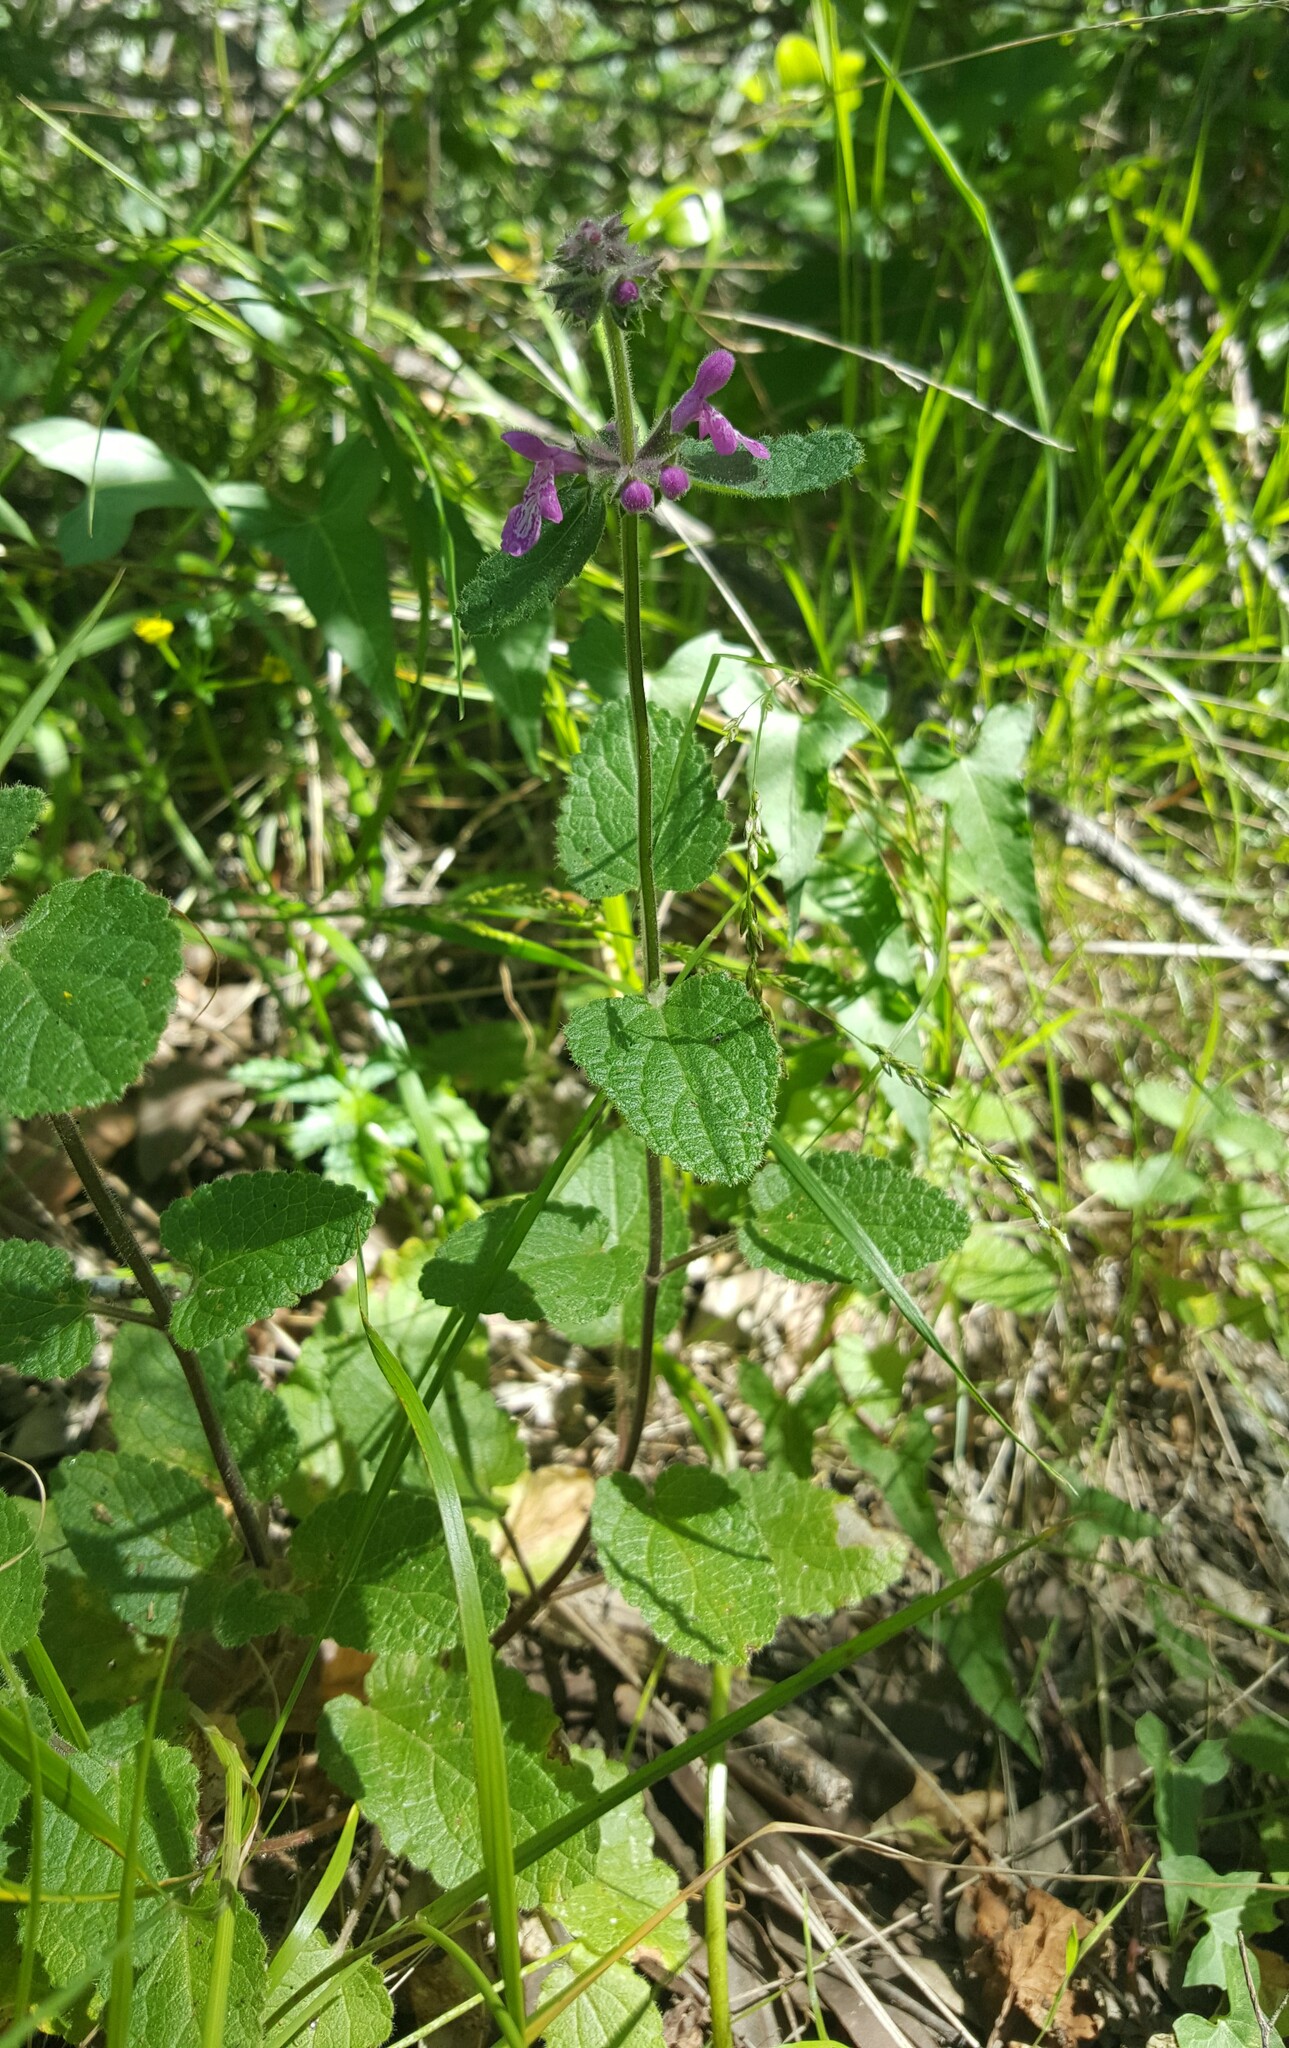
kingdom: Plantae
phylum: Tracheophyta
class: Magnoliopsida
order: Lamiales
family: Lamiaceae
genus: Stachys
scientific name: Stachys bullata
